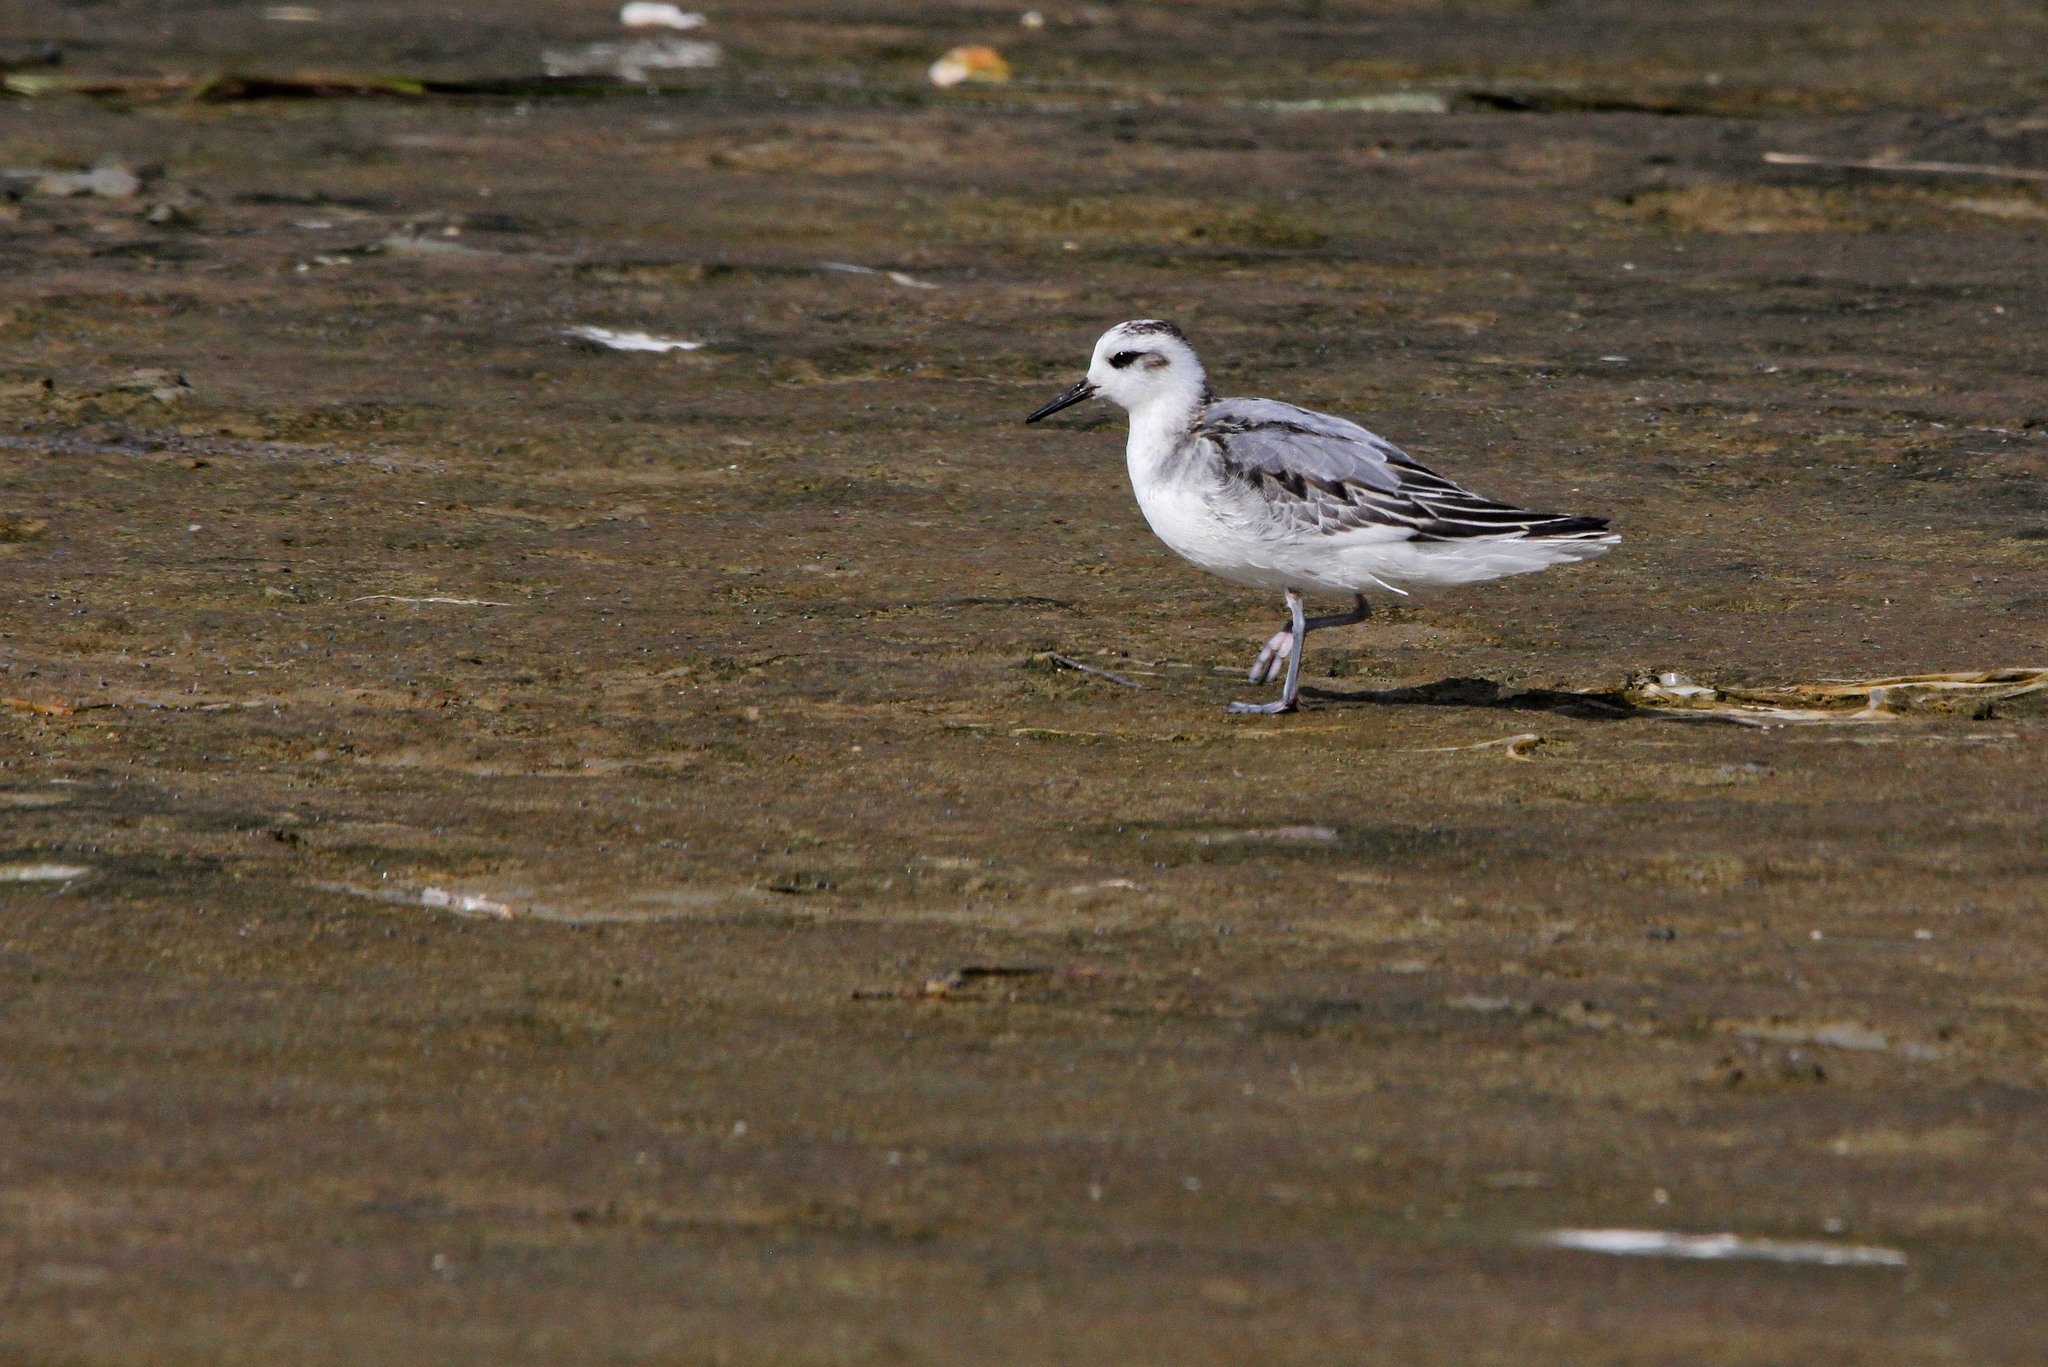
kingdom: Animalia
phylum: Chordata
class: Aves
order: Charadriiformes
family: Scolopacidae
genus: Phalaropus
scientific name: Phalaropus fulicarius
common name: Red phalarope
